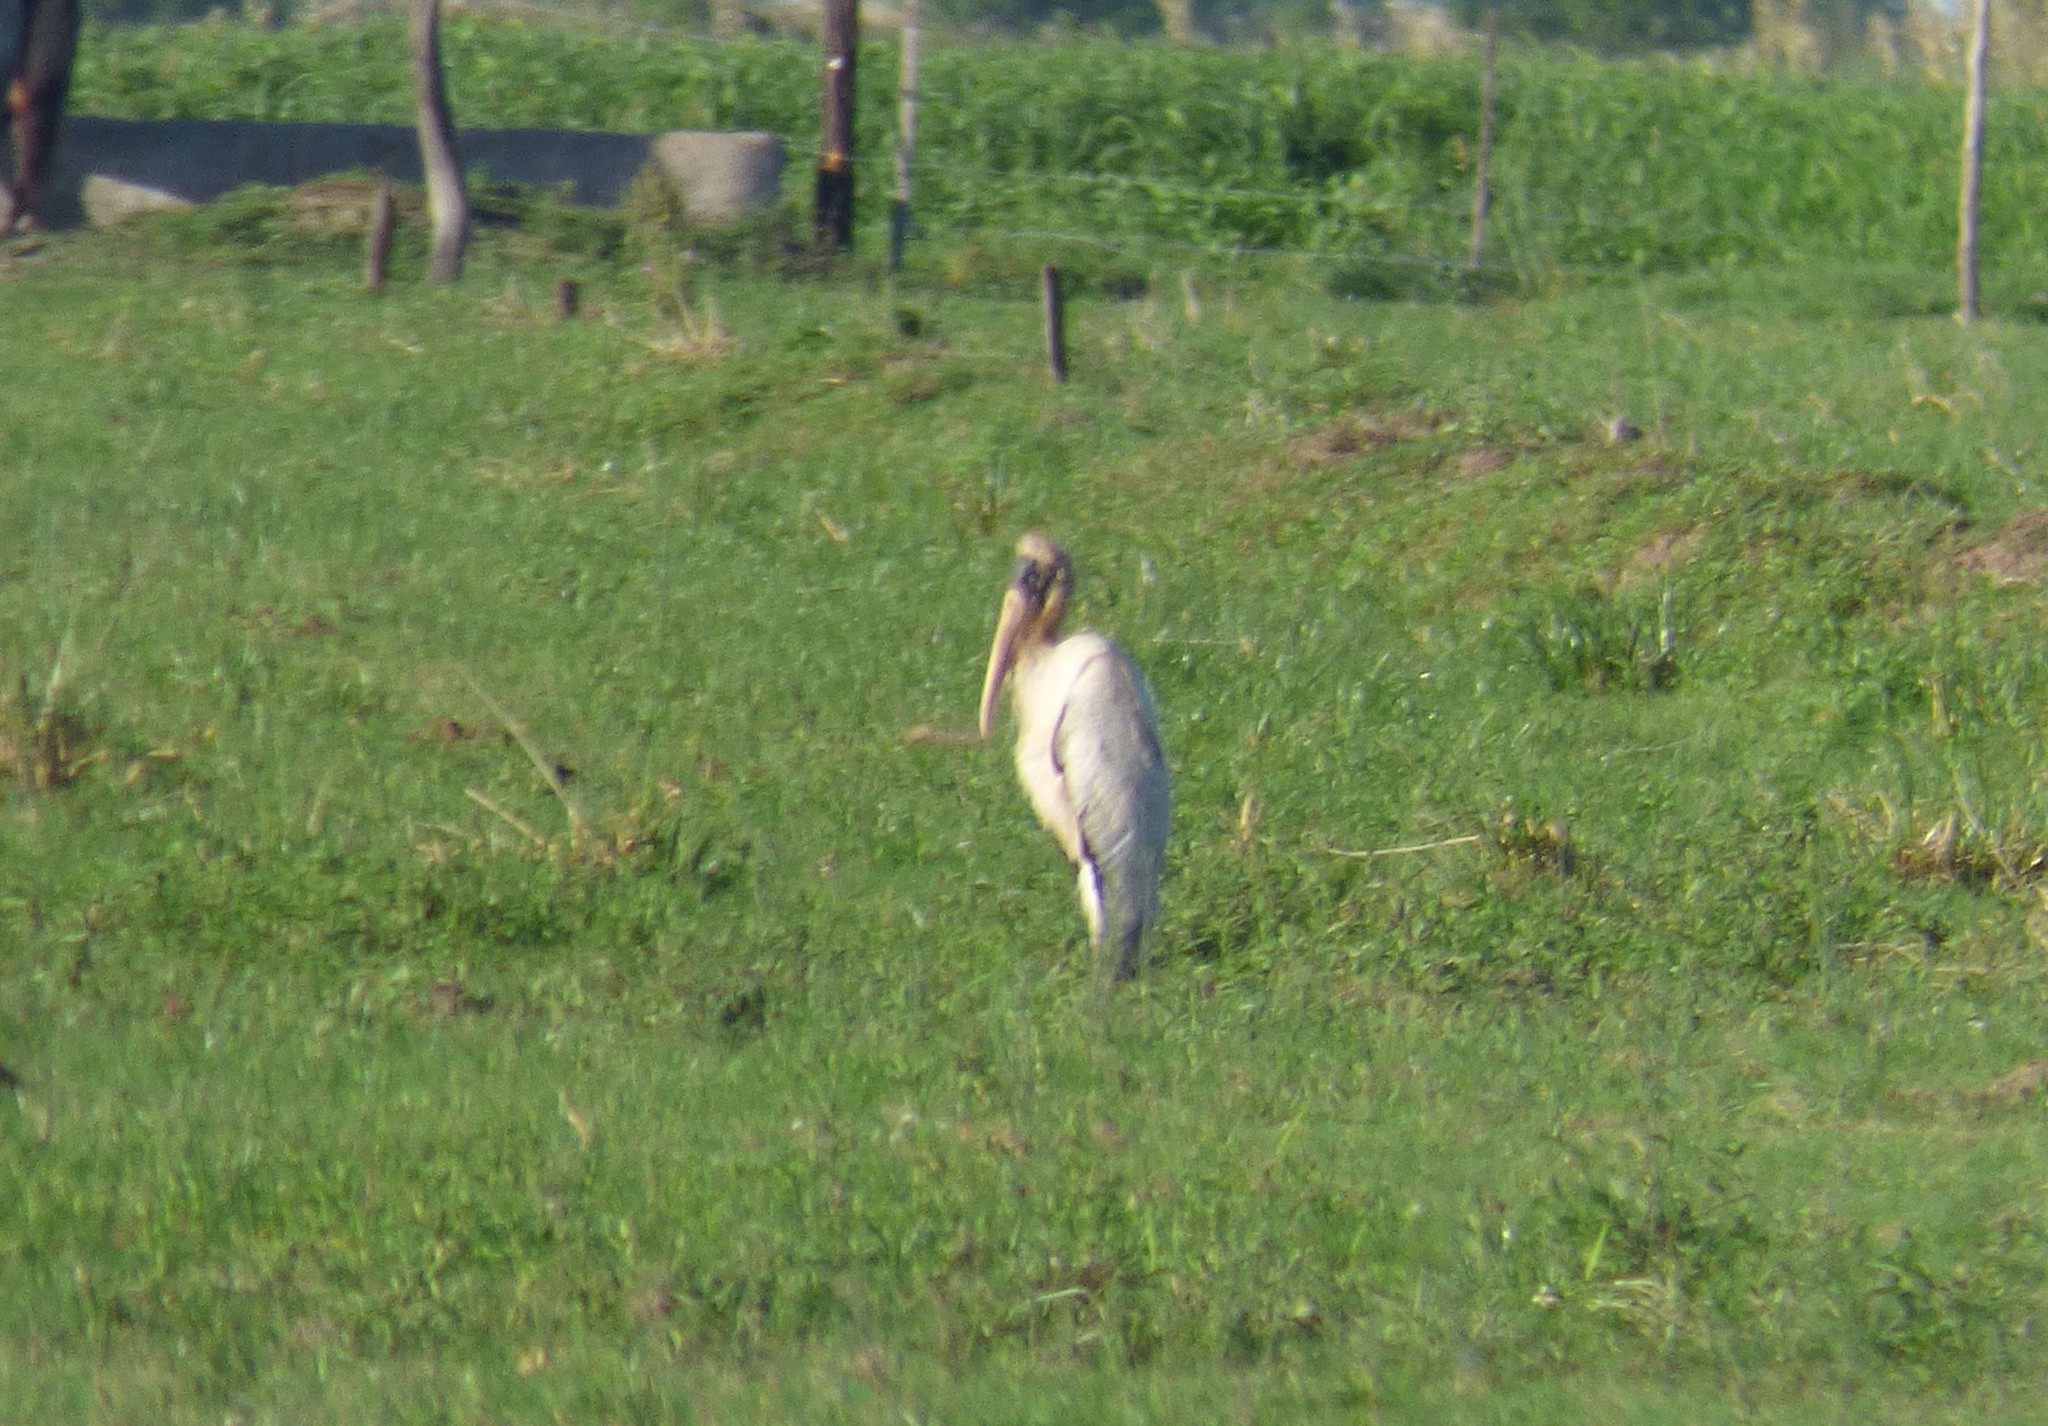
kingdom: Animalia
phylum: Chordata
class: Aves
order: Ciconiiformes
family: Ciconiidae
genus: Mycteria
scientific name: Mycteria americana
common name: Wood stork
